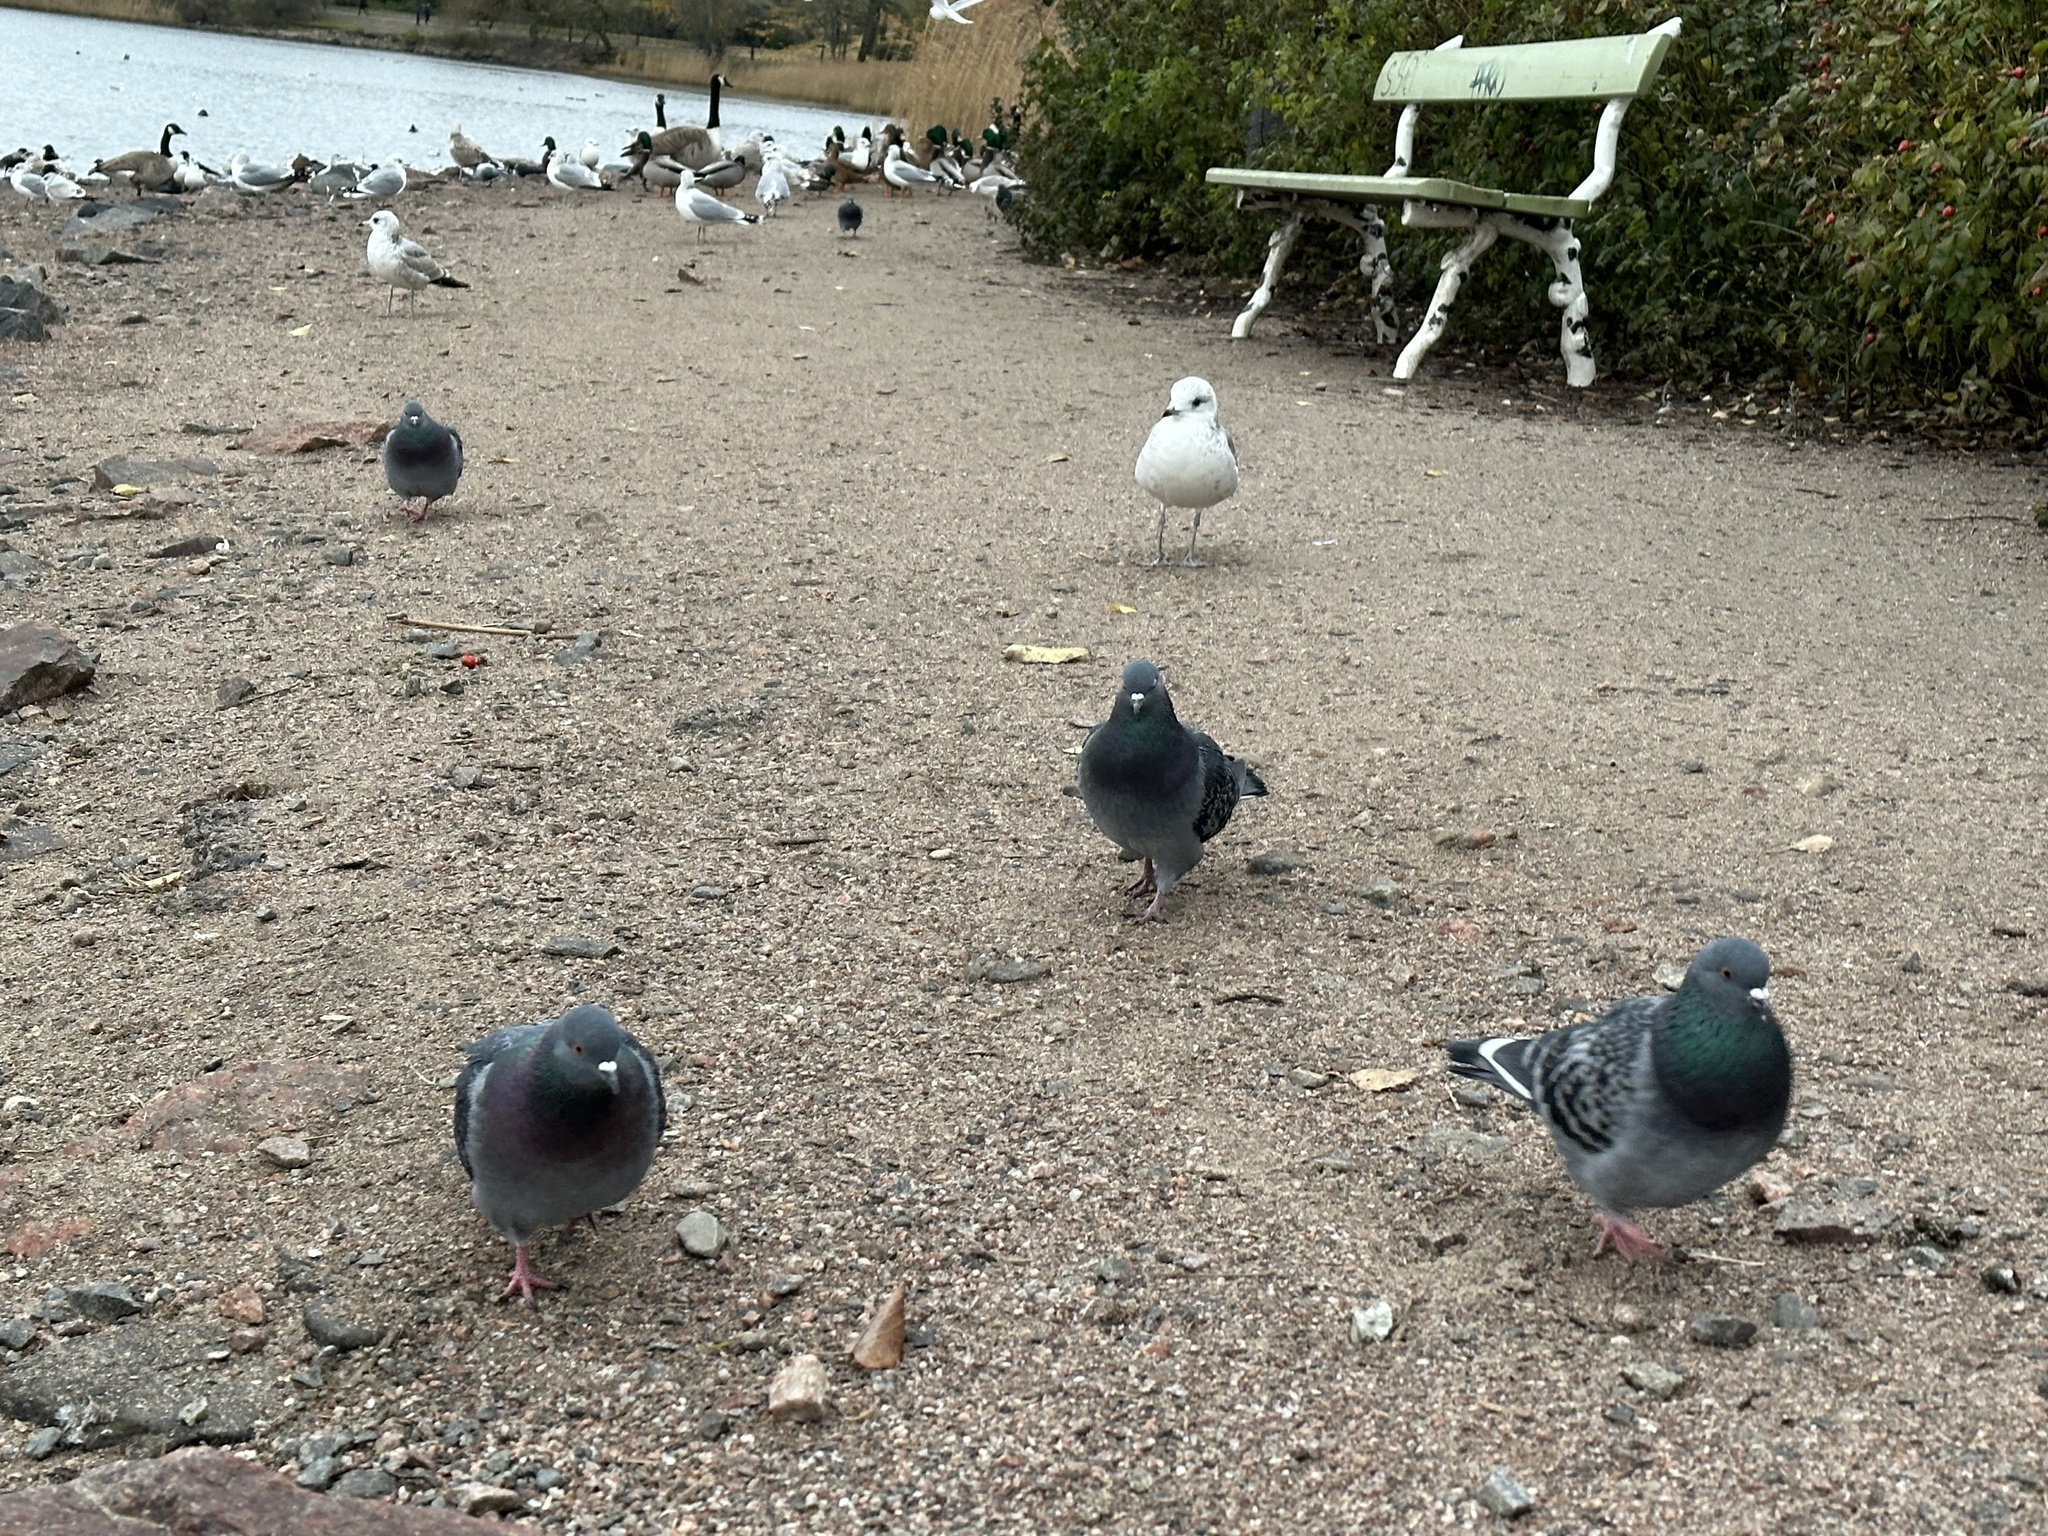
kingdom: Animalia
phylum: Chordata
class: Aves
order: Columbiformes
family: Columbidae
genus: Columba
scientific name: Columba livia
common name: Rock pigeon
